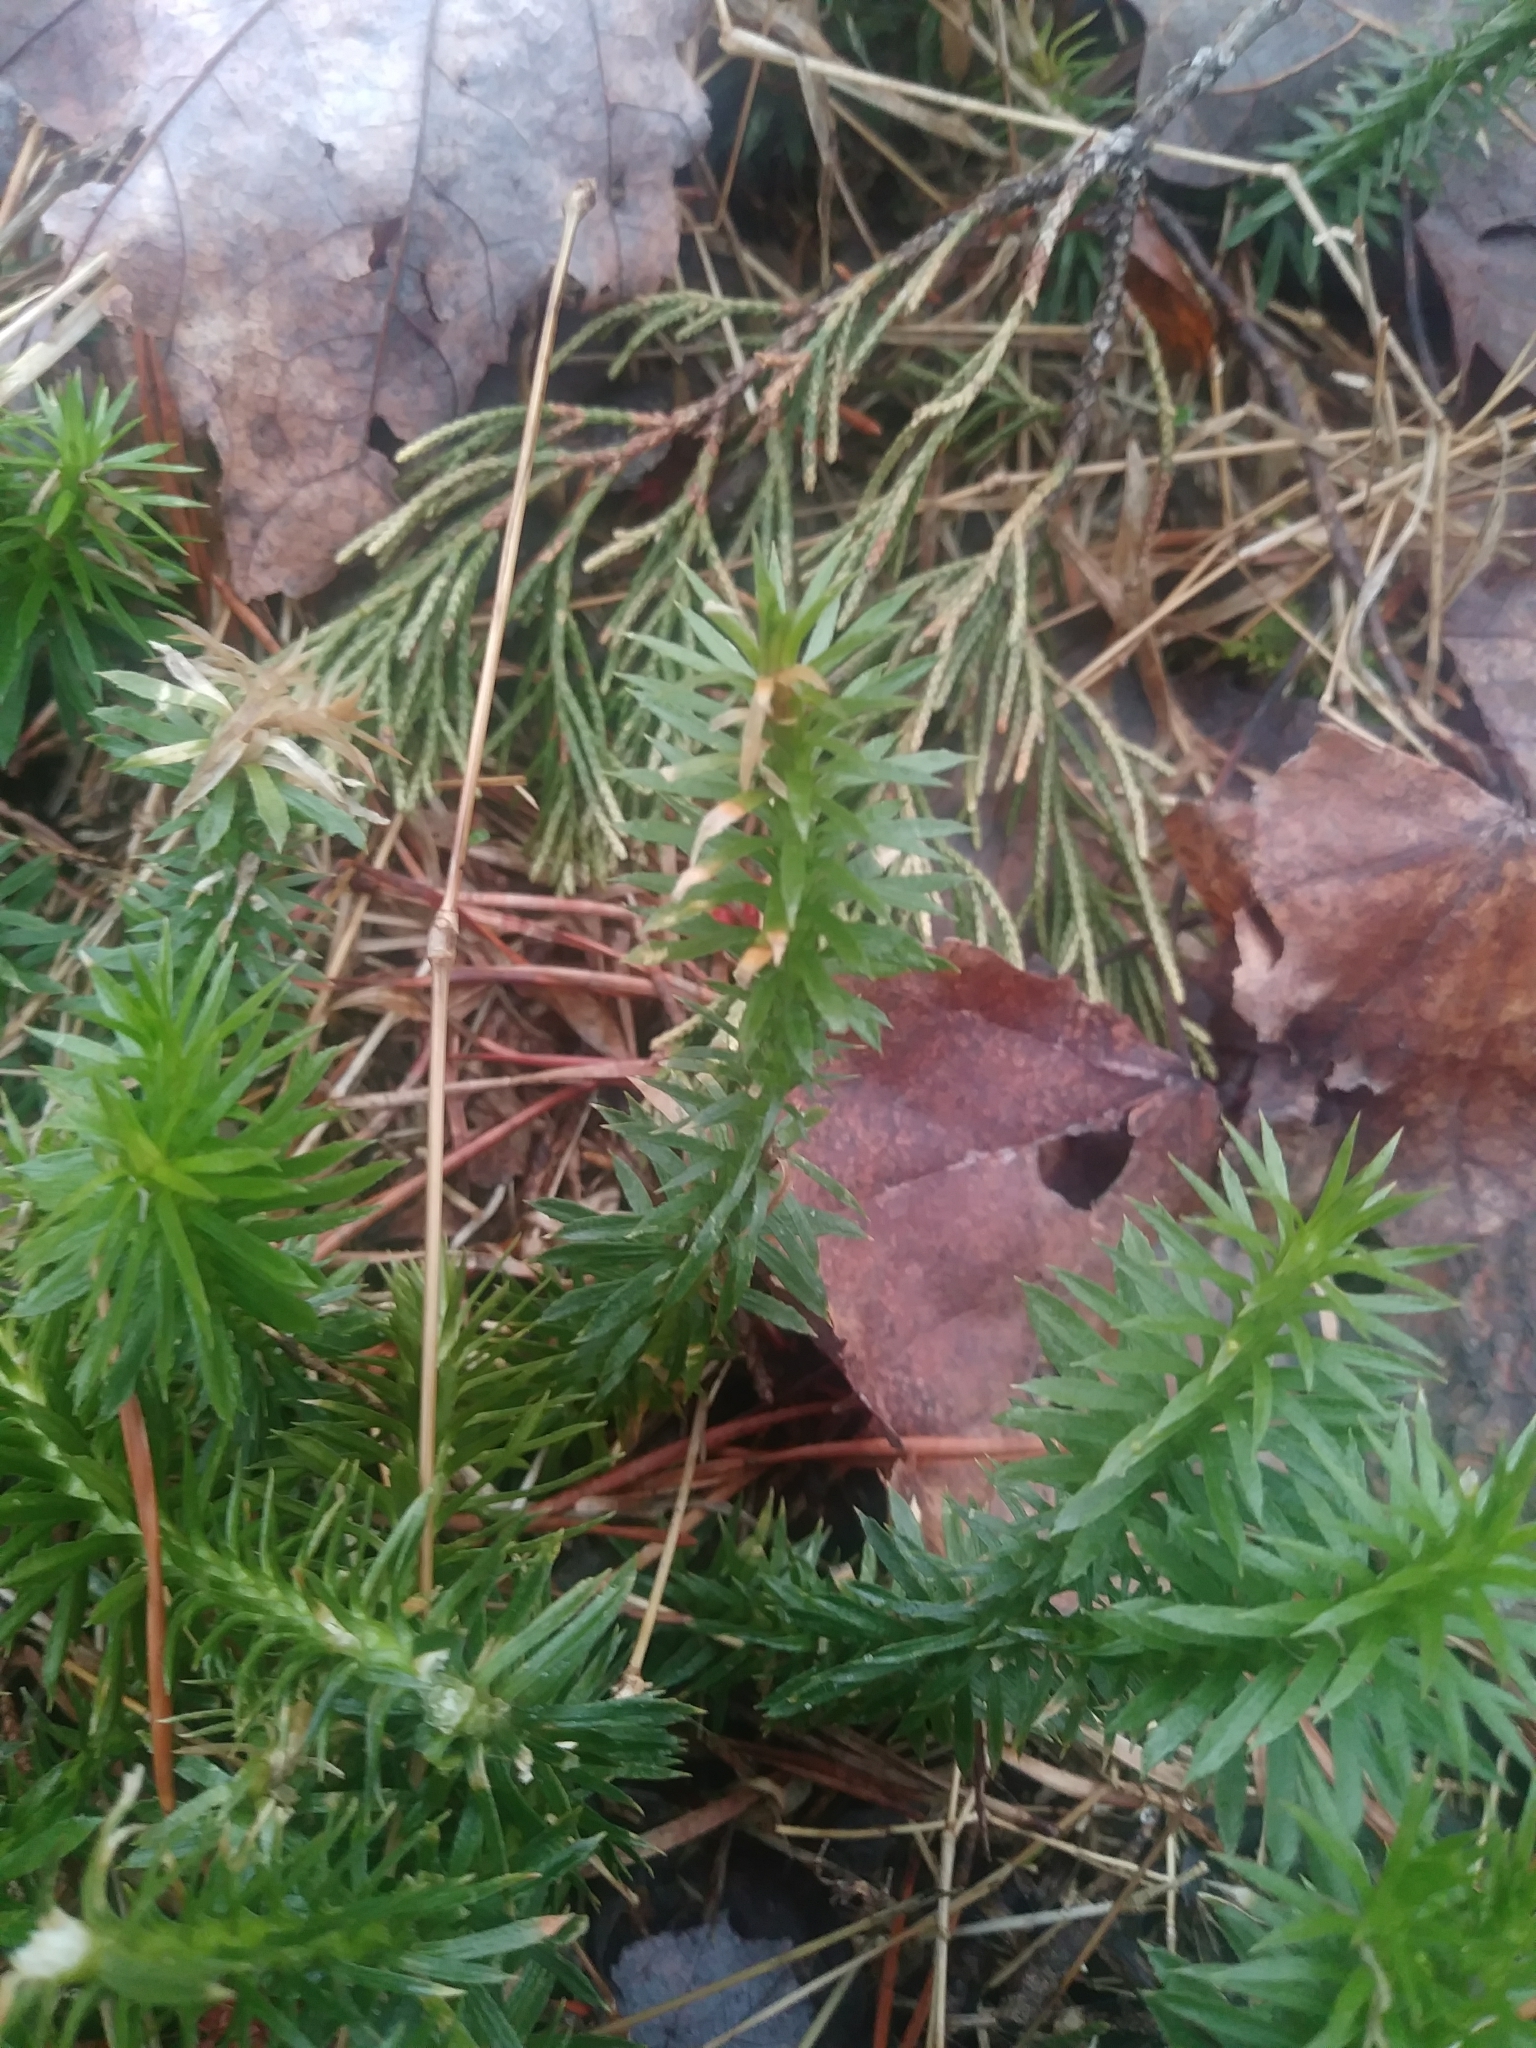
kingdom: Plantae
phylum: Tracheophyta
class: Lycopodiopsida
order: Lycopodiales
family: Lycopodiaceae
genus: Huperzia
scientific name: Huperzia lucidula
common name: Shining clubmoss
